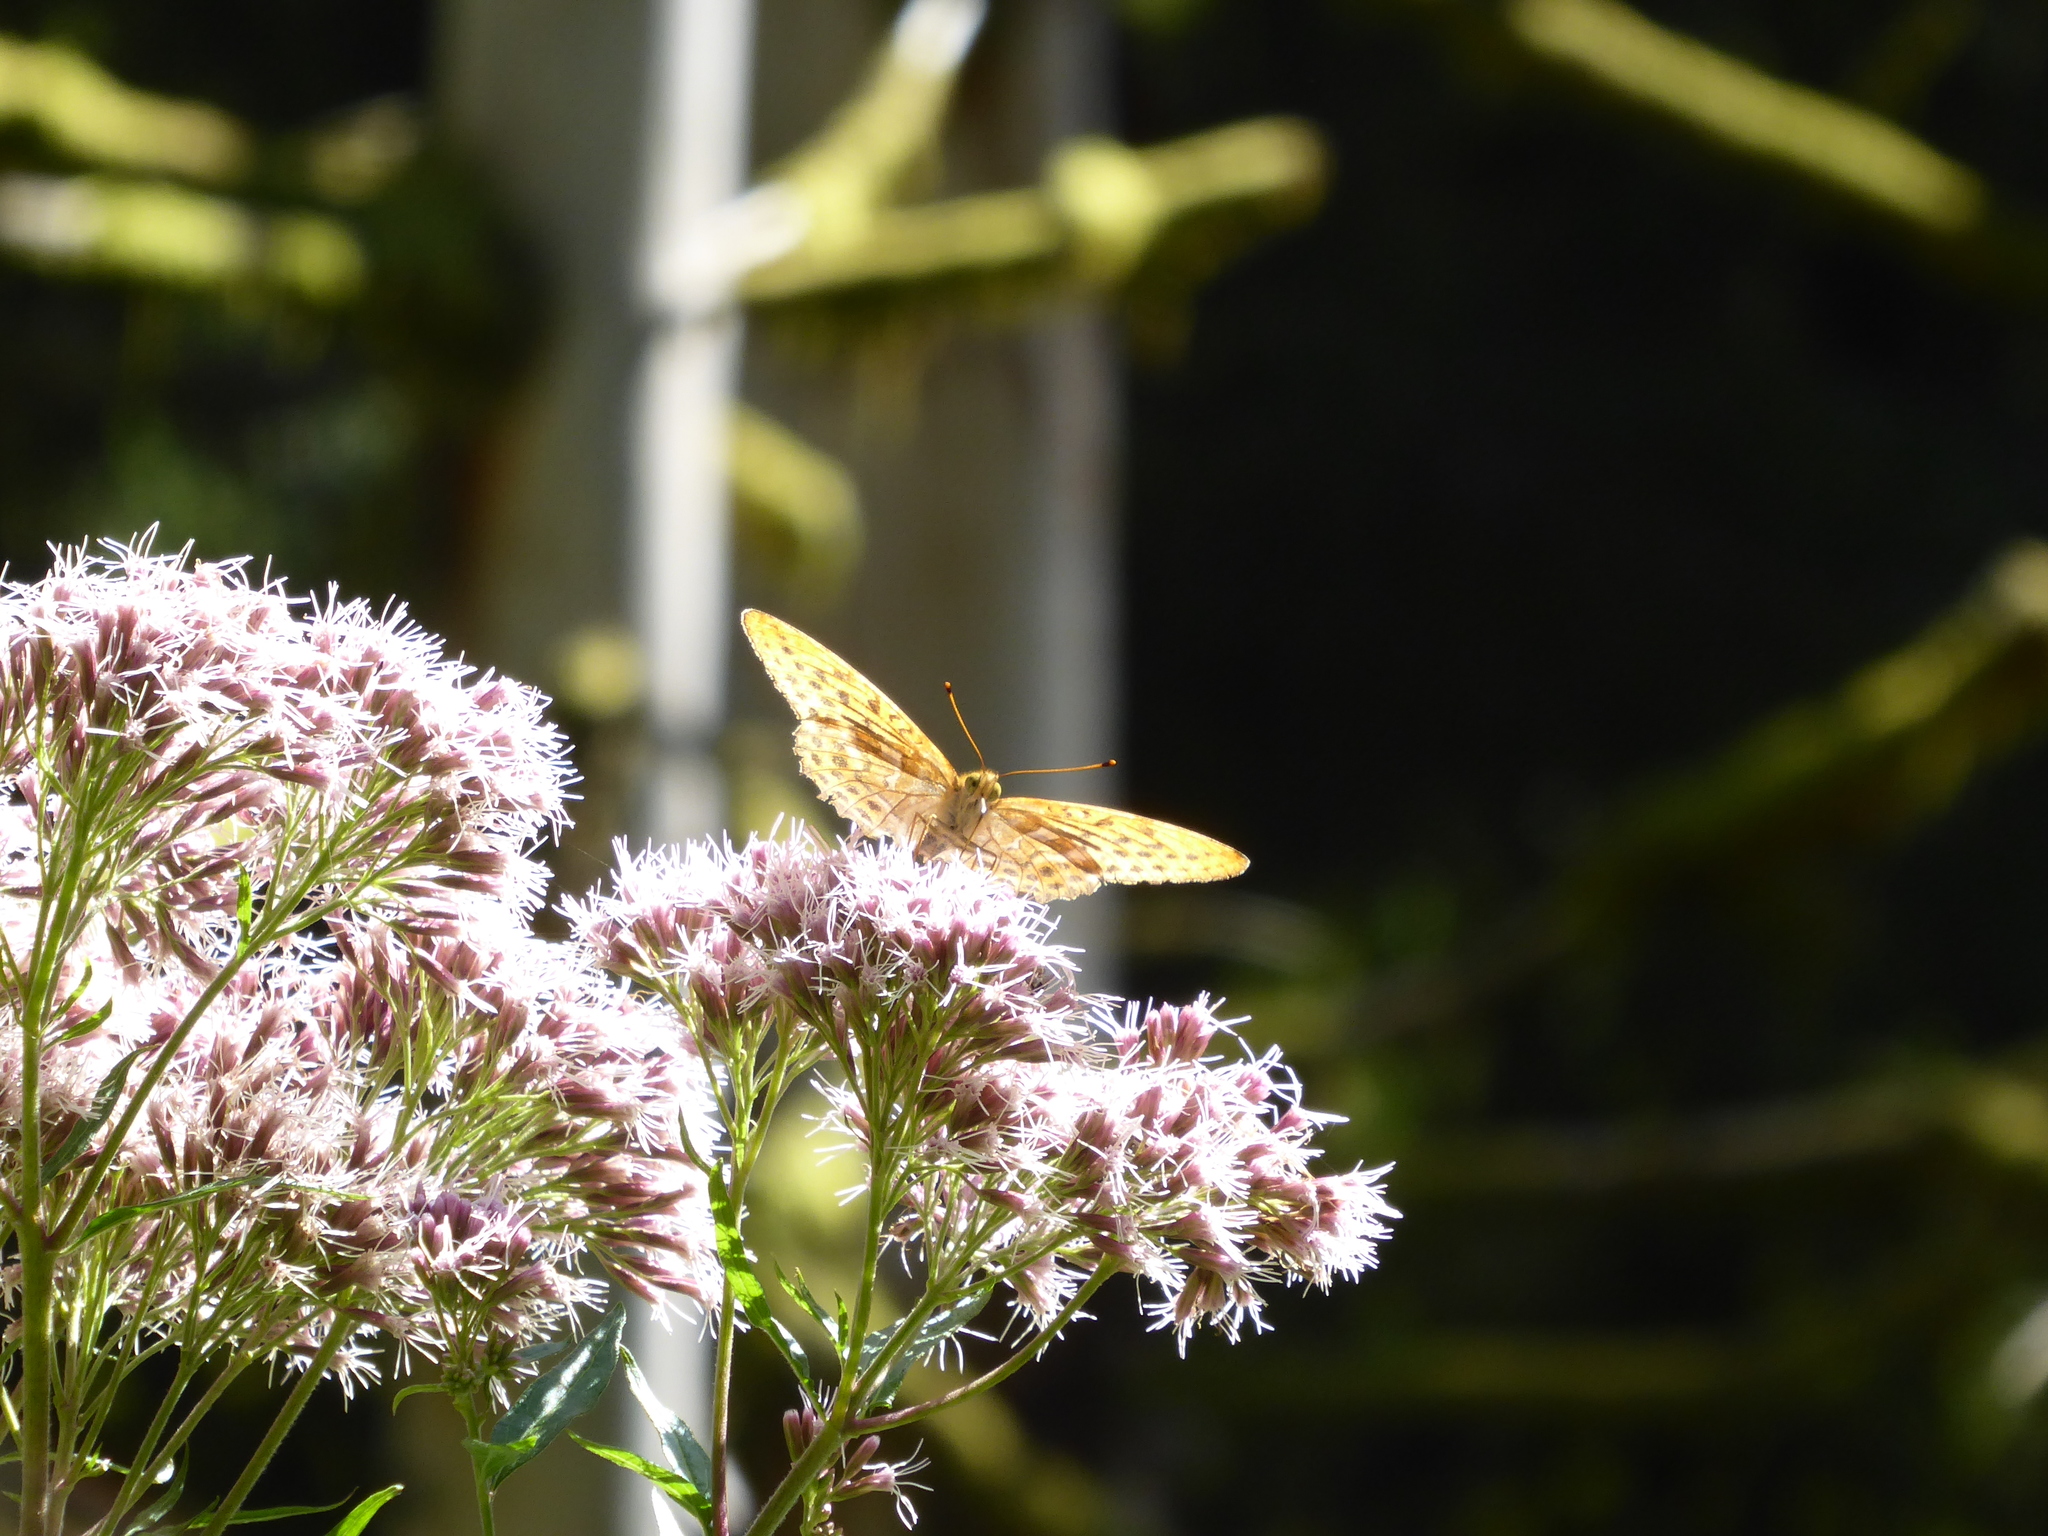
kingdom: Animalia
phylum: Arthropoda
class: Insecta
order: Lepidoptera
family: Nymphalidae
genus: Argynnis
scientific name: Argynnis paphia
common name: Silver-washed fritillary
